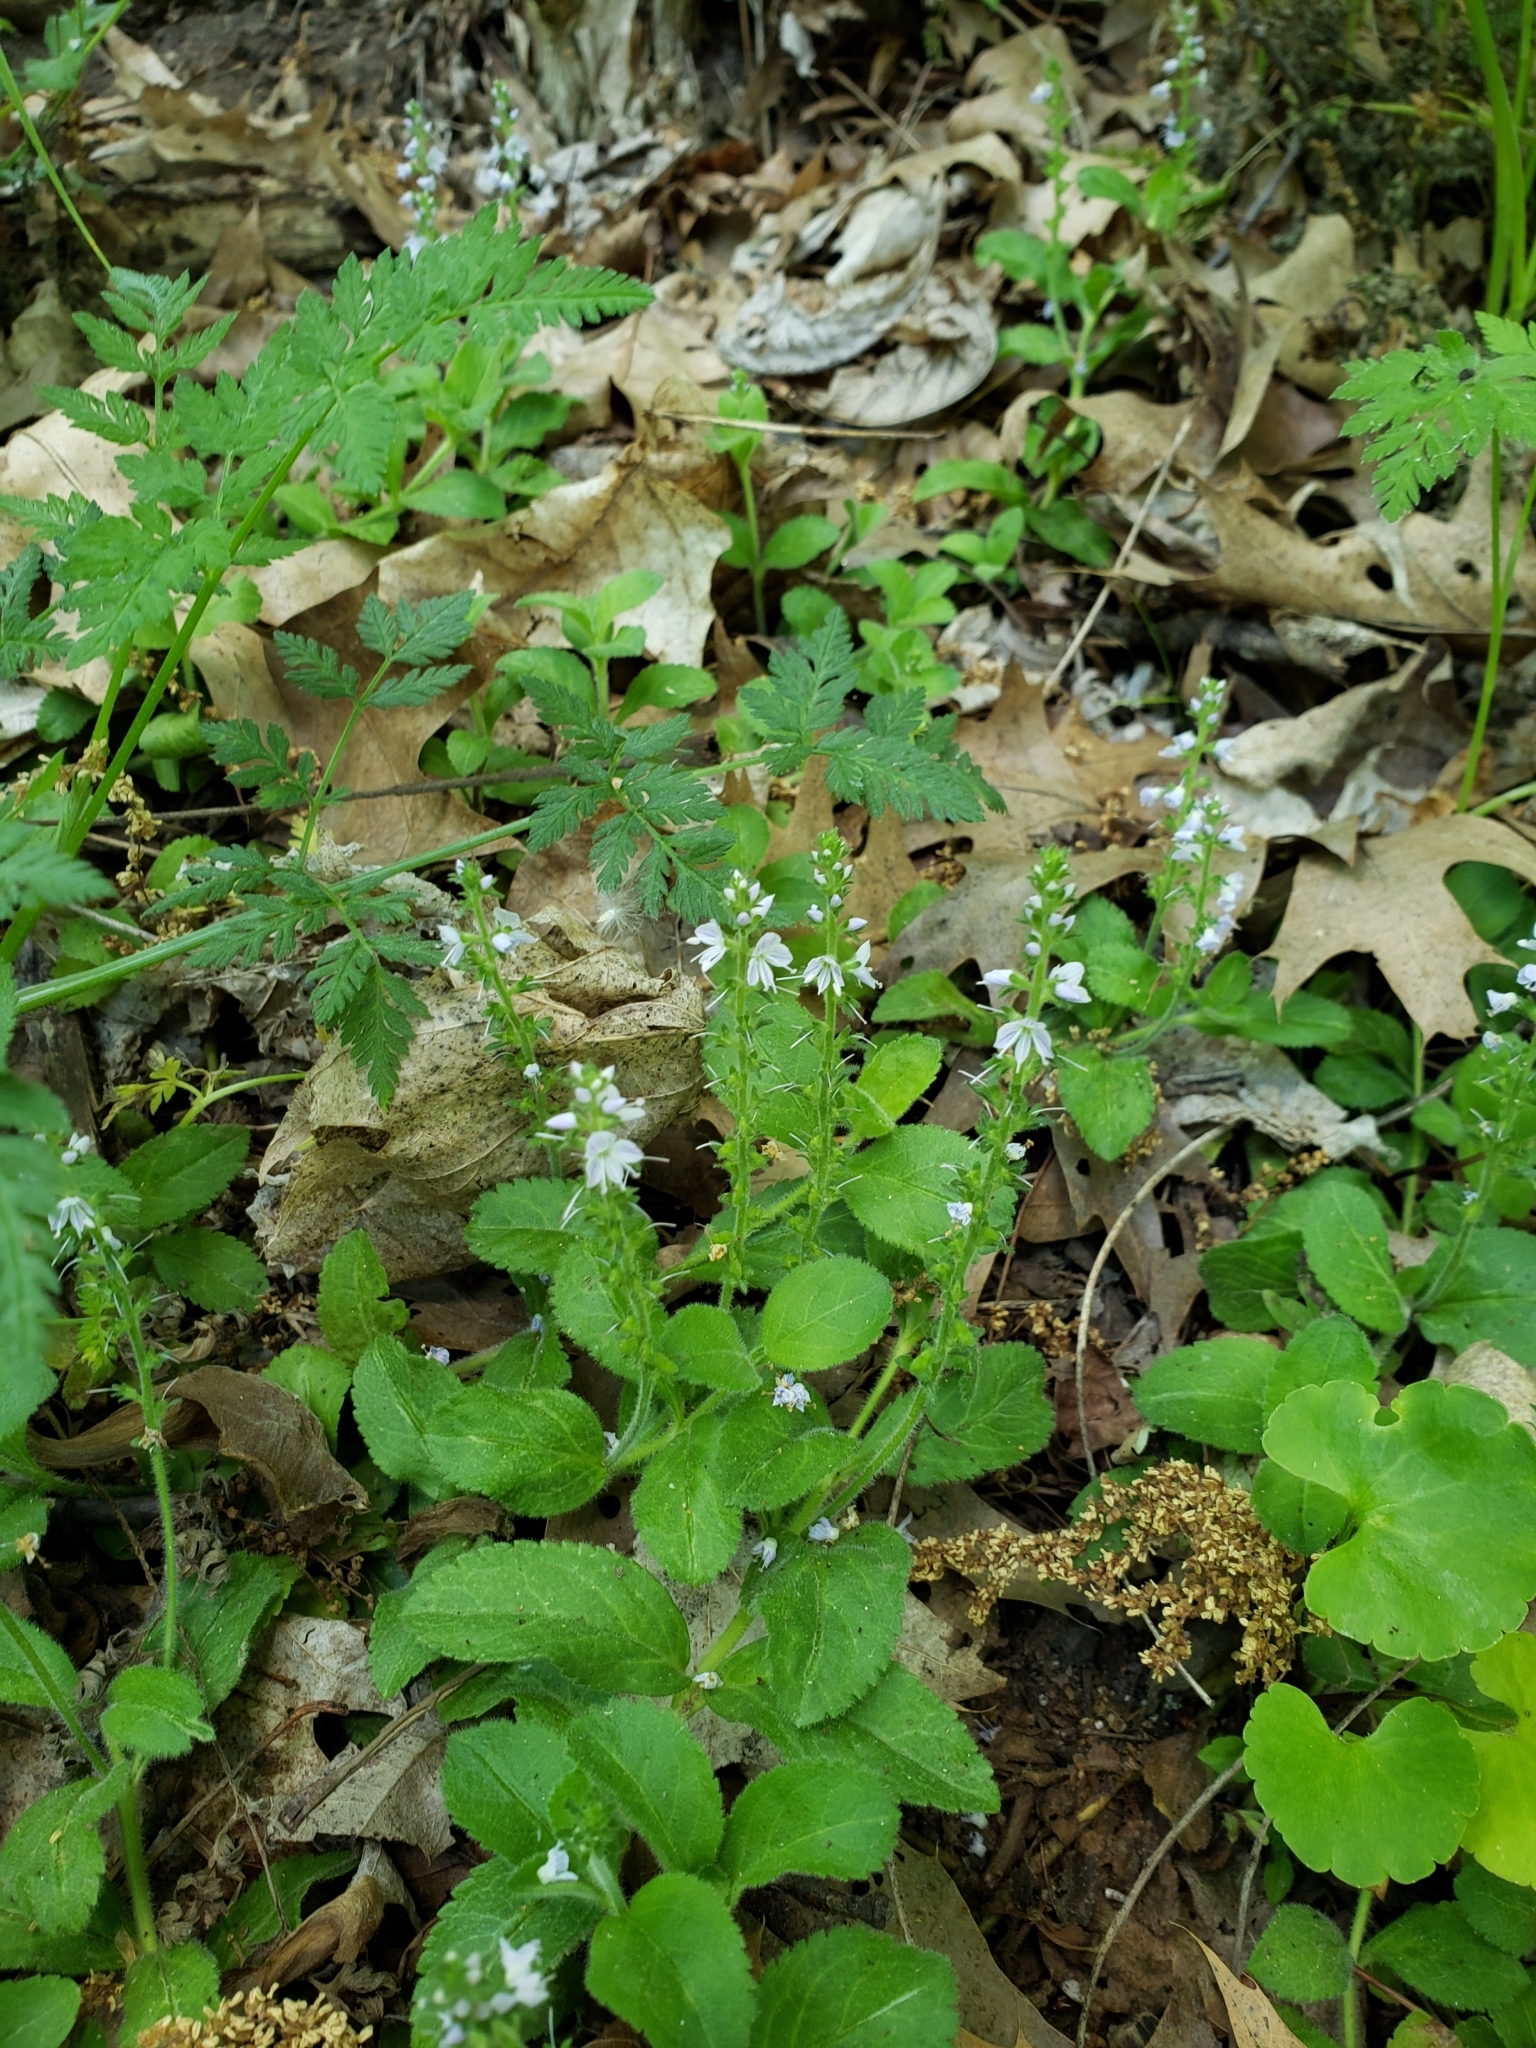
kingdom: Plantae
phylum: Tracheophyta
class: Magnoliopsida
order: Lamiales
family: Plantaginaceae
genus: Veronica
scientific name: Veronica officinalis
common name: Common speedwell
